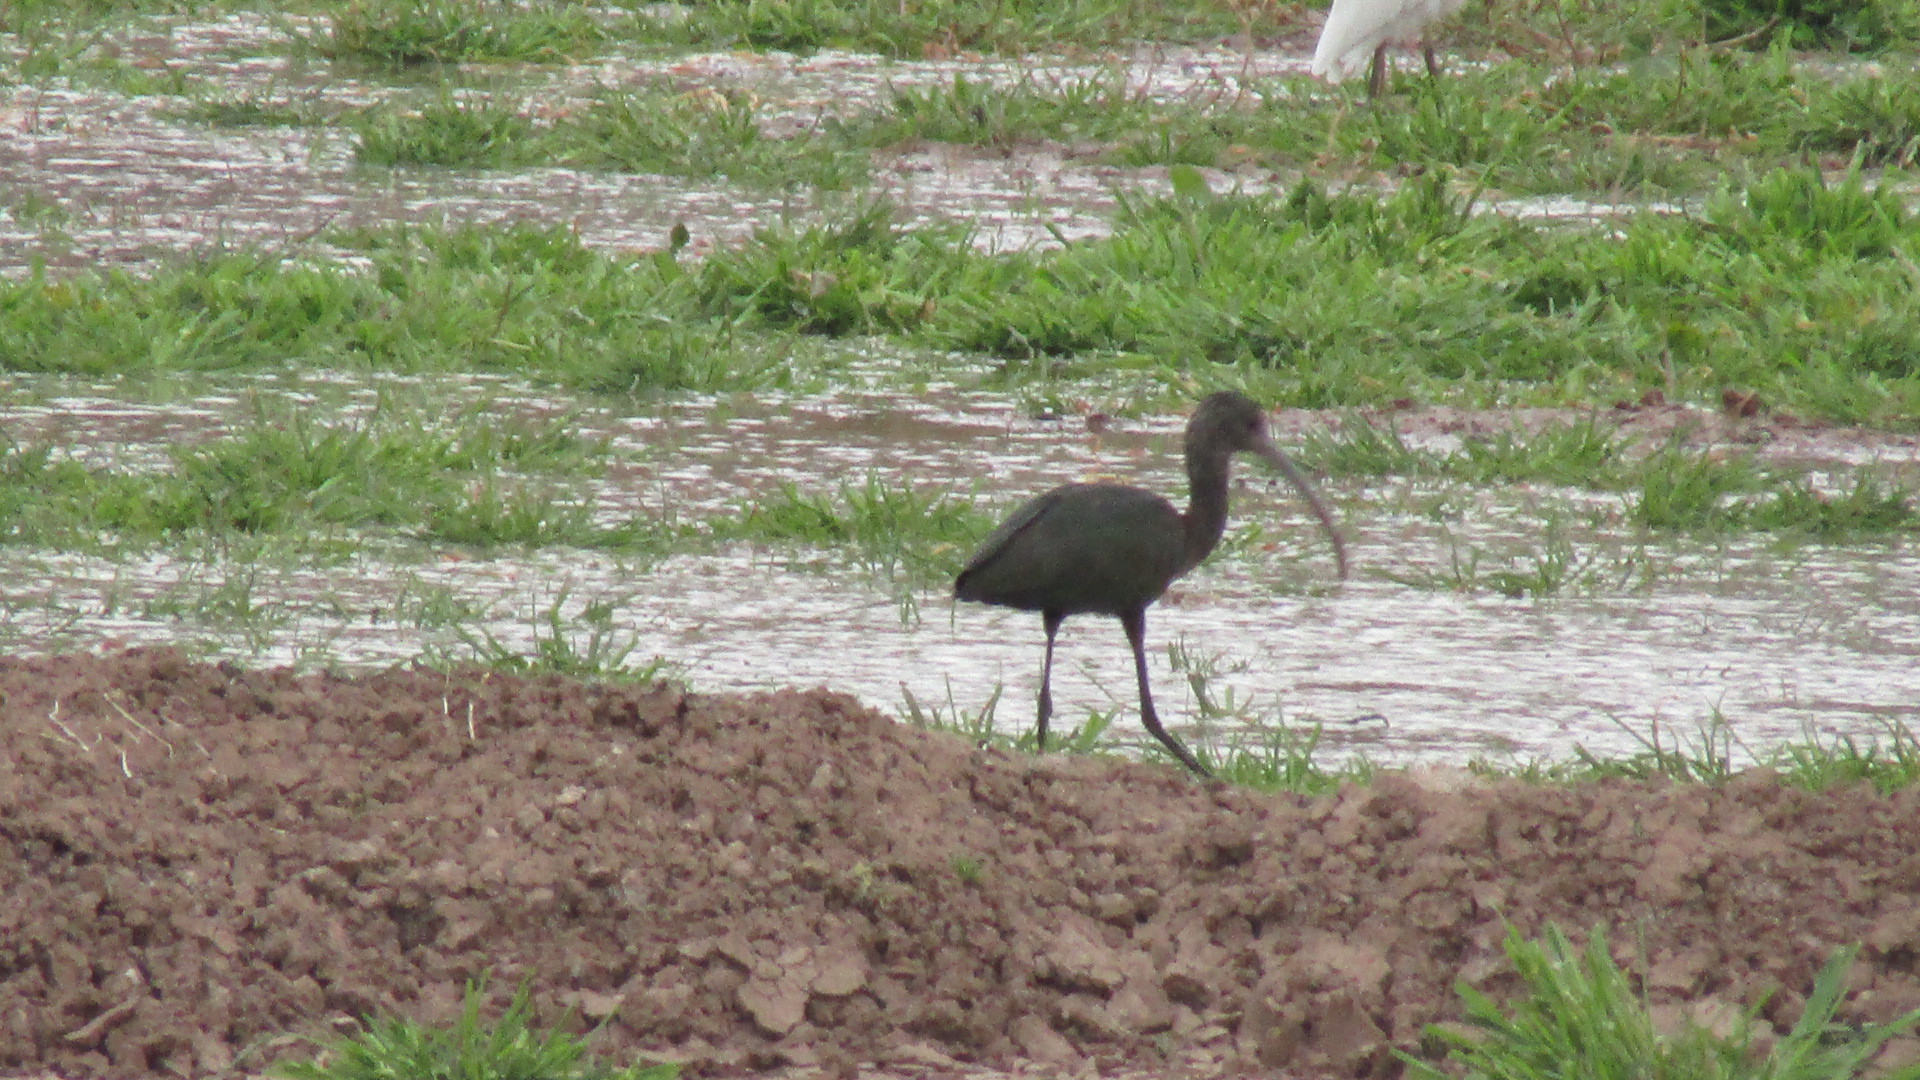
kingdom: Animalia
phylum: Chordata
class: Aves
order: Pelecaniformes
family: Threskiornithidae
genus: Plegadis
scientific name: Plegadis chihi
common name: White-faced ibis
